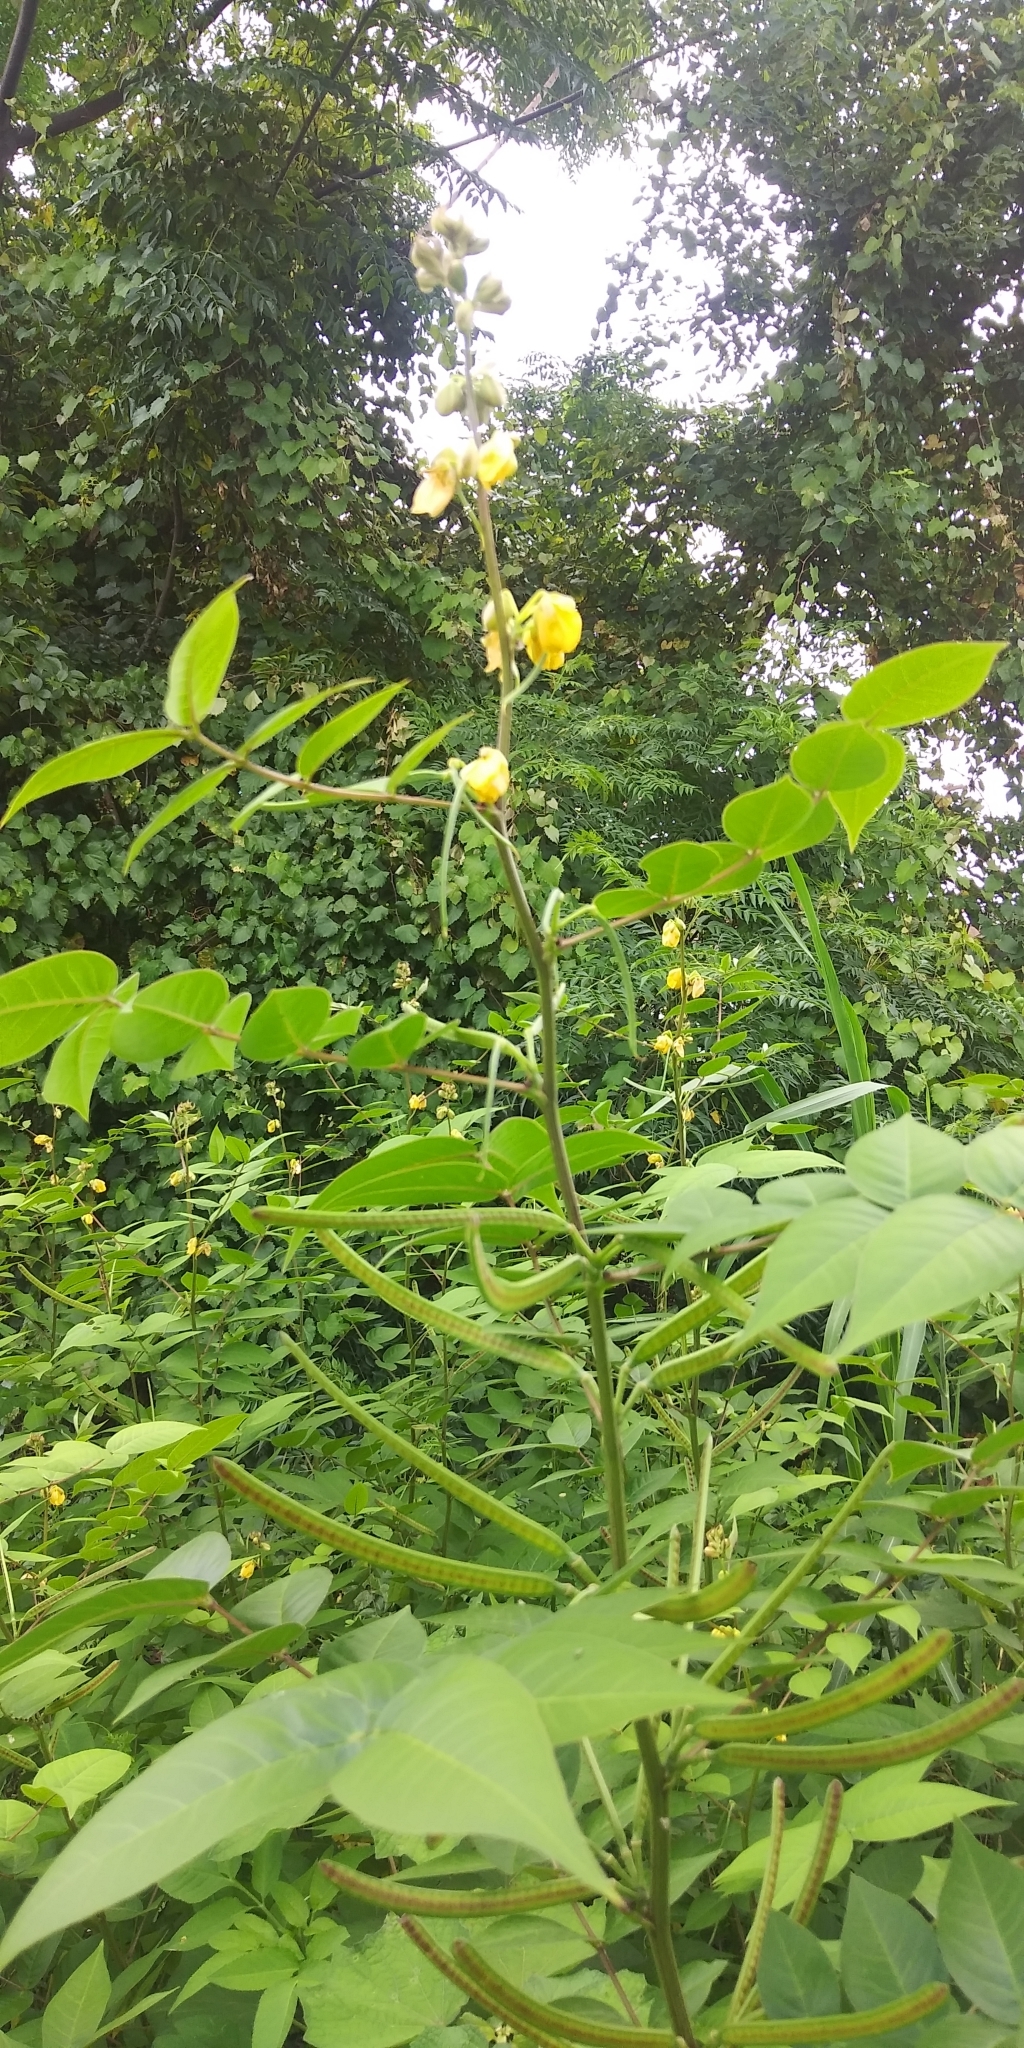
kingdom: Plantae
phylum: Tracheophyta
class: Magnoliopsida
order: Fabales
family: Fabaceae
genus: Senna
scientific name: Senna occidentalis
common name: Septicweed
